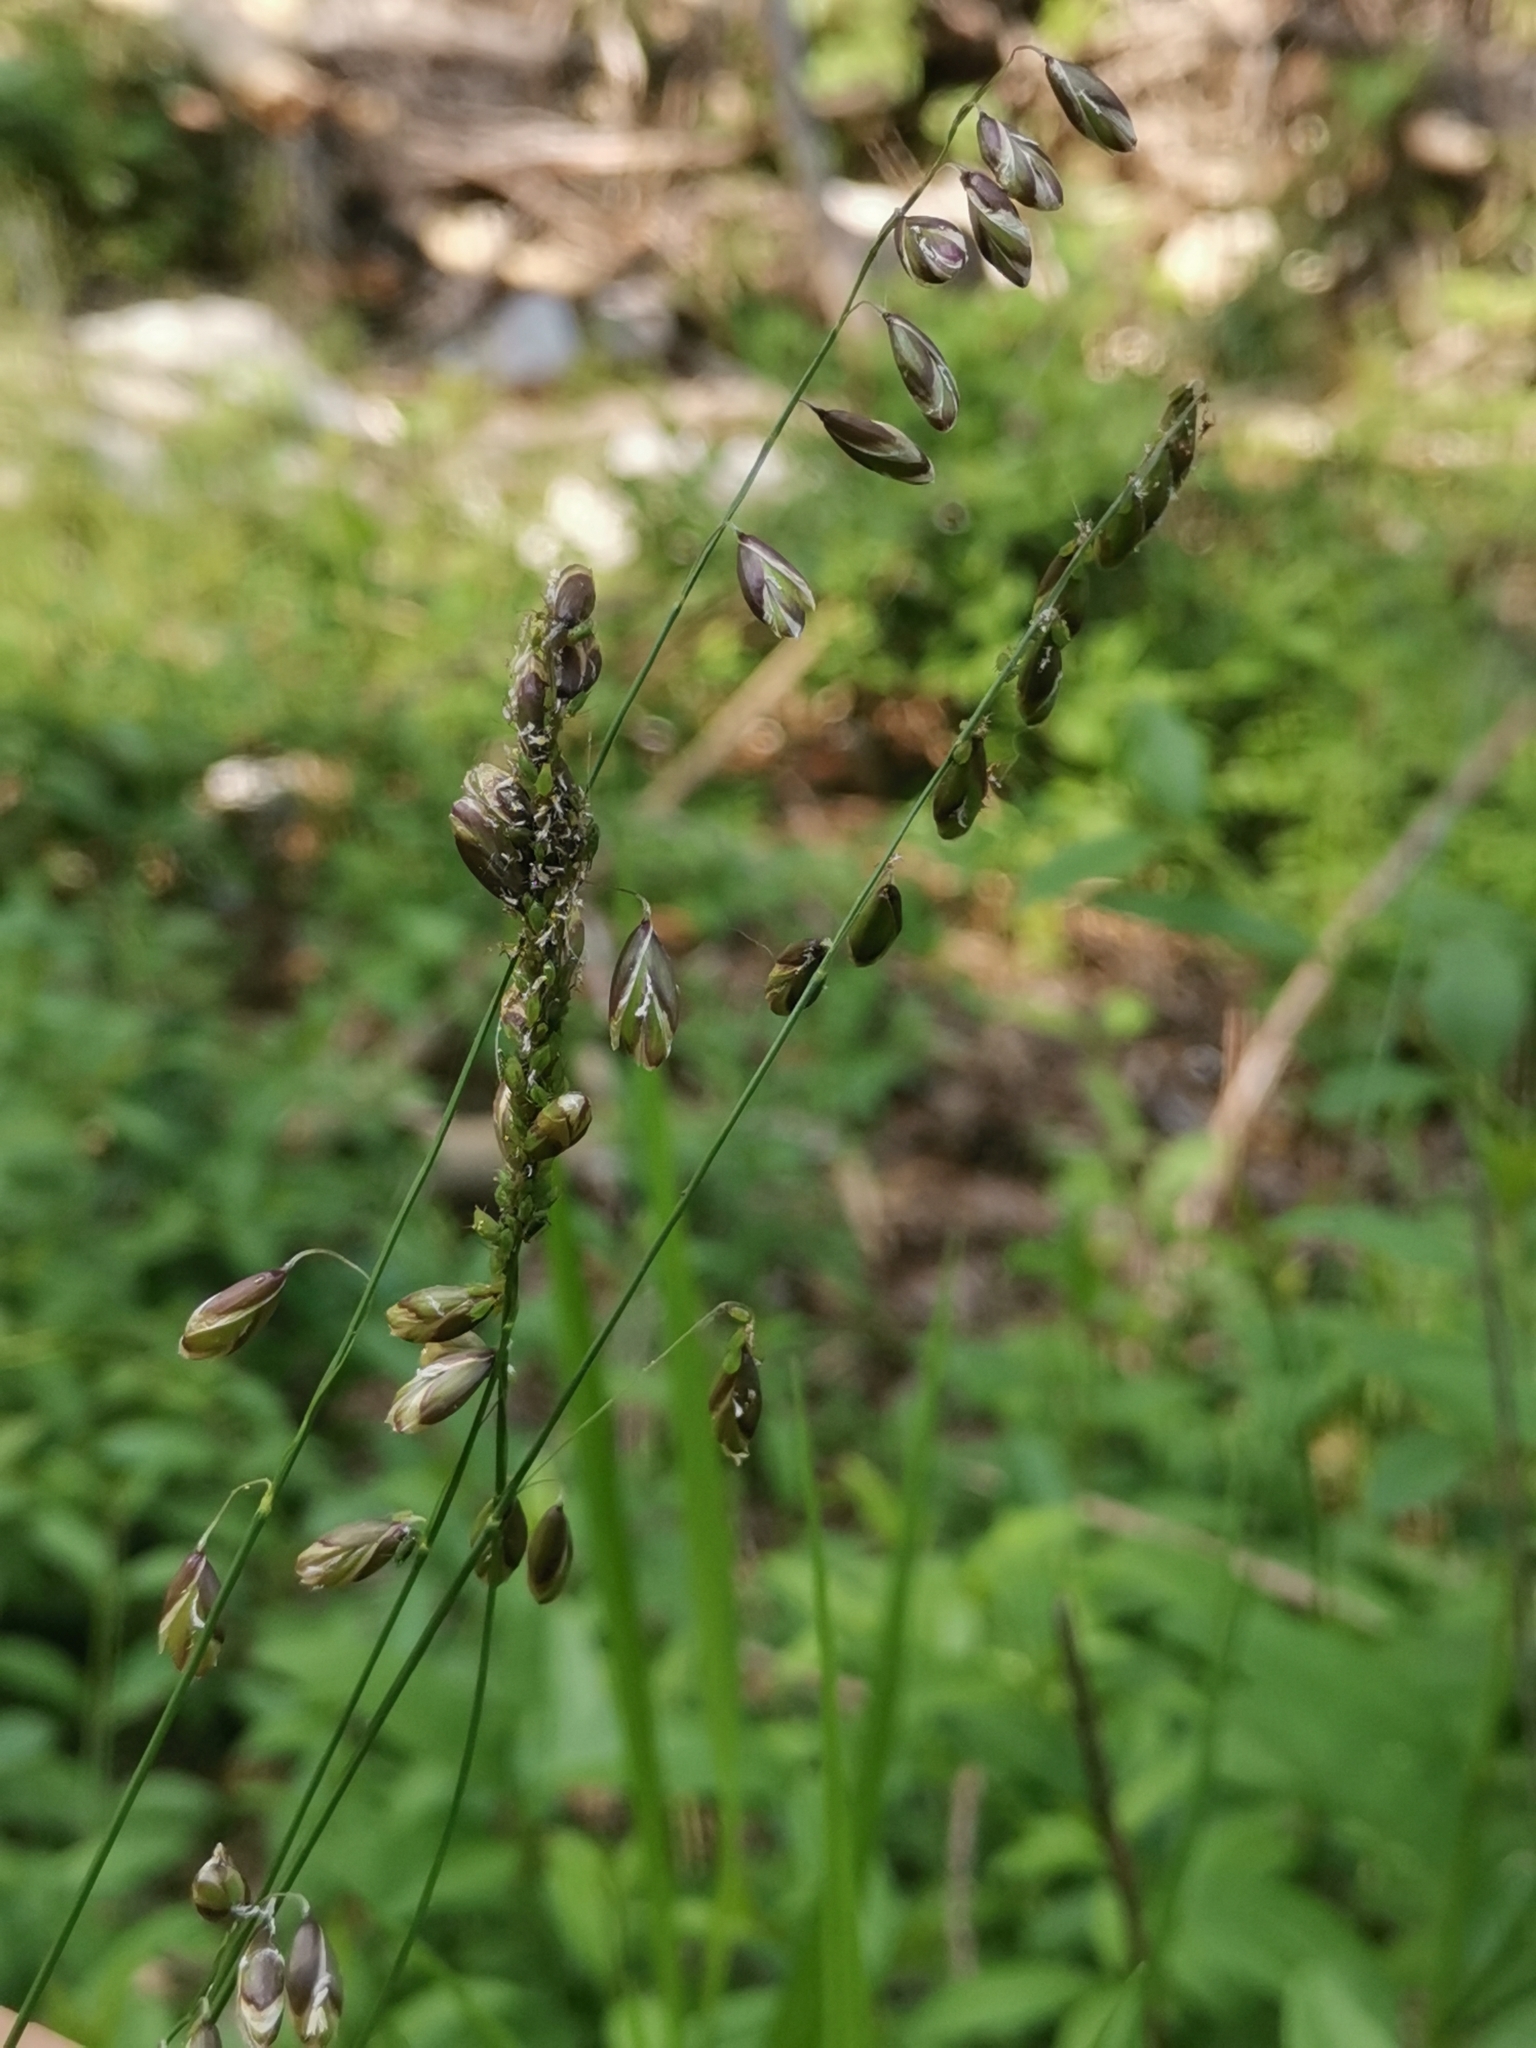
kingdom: Plantae
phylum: Tracheophyta
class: Liliopsida
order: Poales
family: Poaceae
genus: Melica
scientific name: Melica picta
